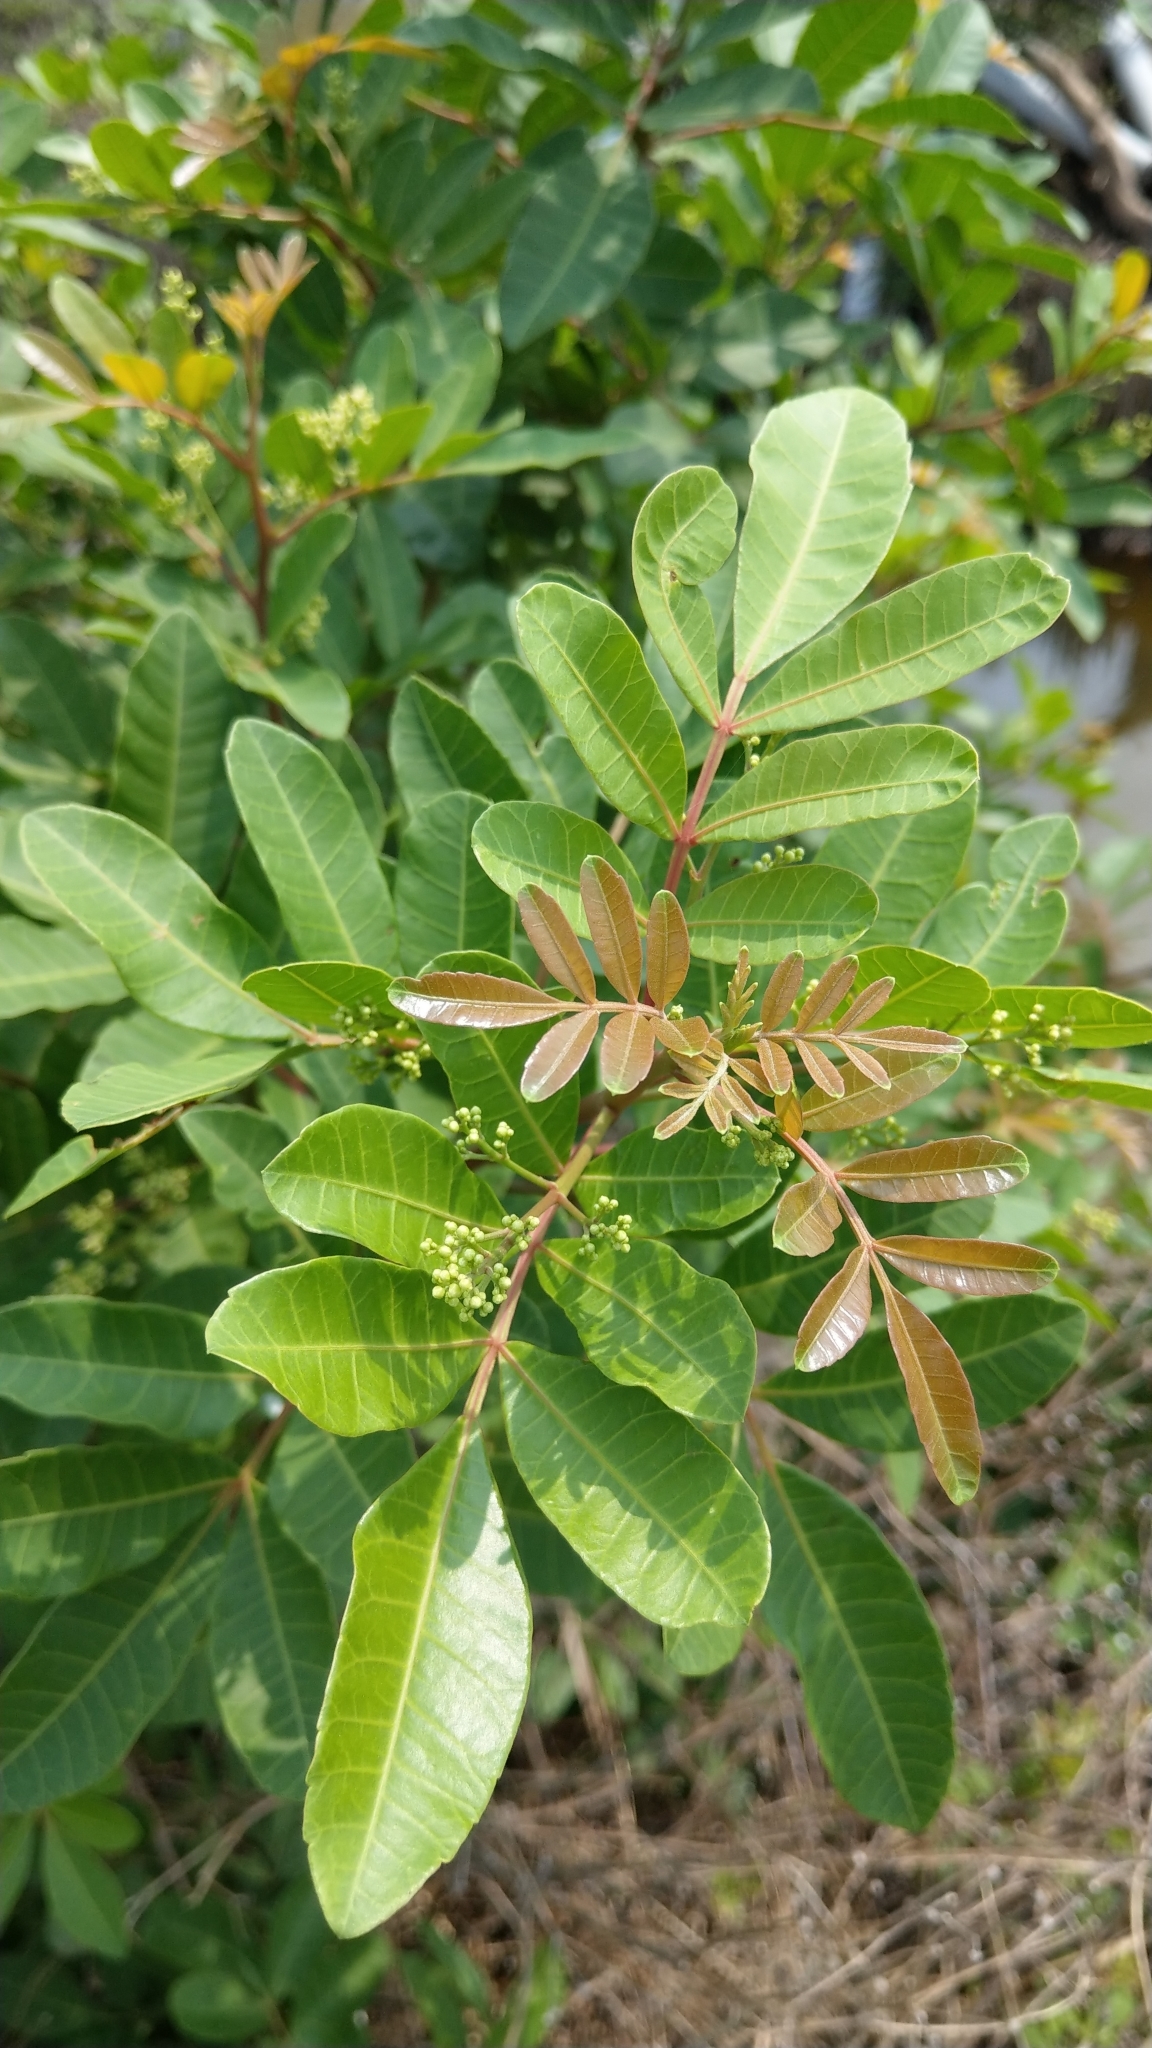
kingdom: Plantae
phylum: Tracheophyta
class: Magnoliopsida
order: Sapindales
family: Anacardiaceae
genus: Schinus
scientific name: Schinus terebinthifolia
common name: Brazilian peppertree
